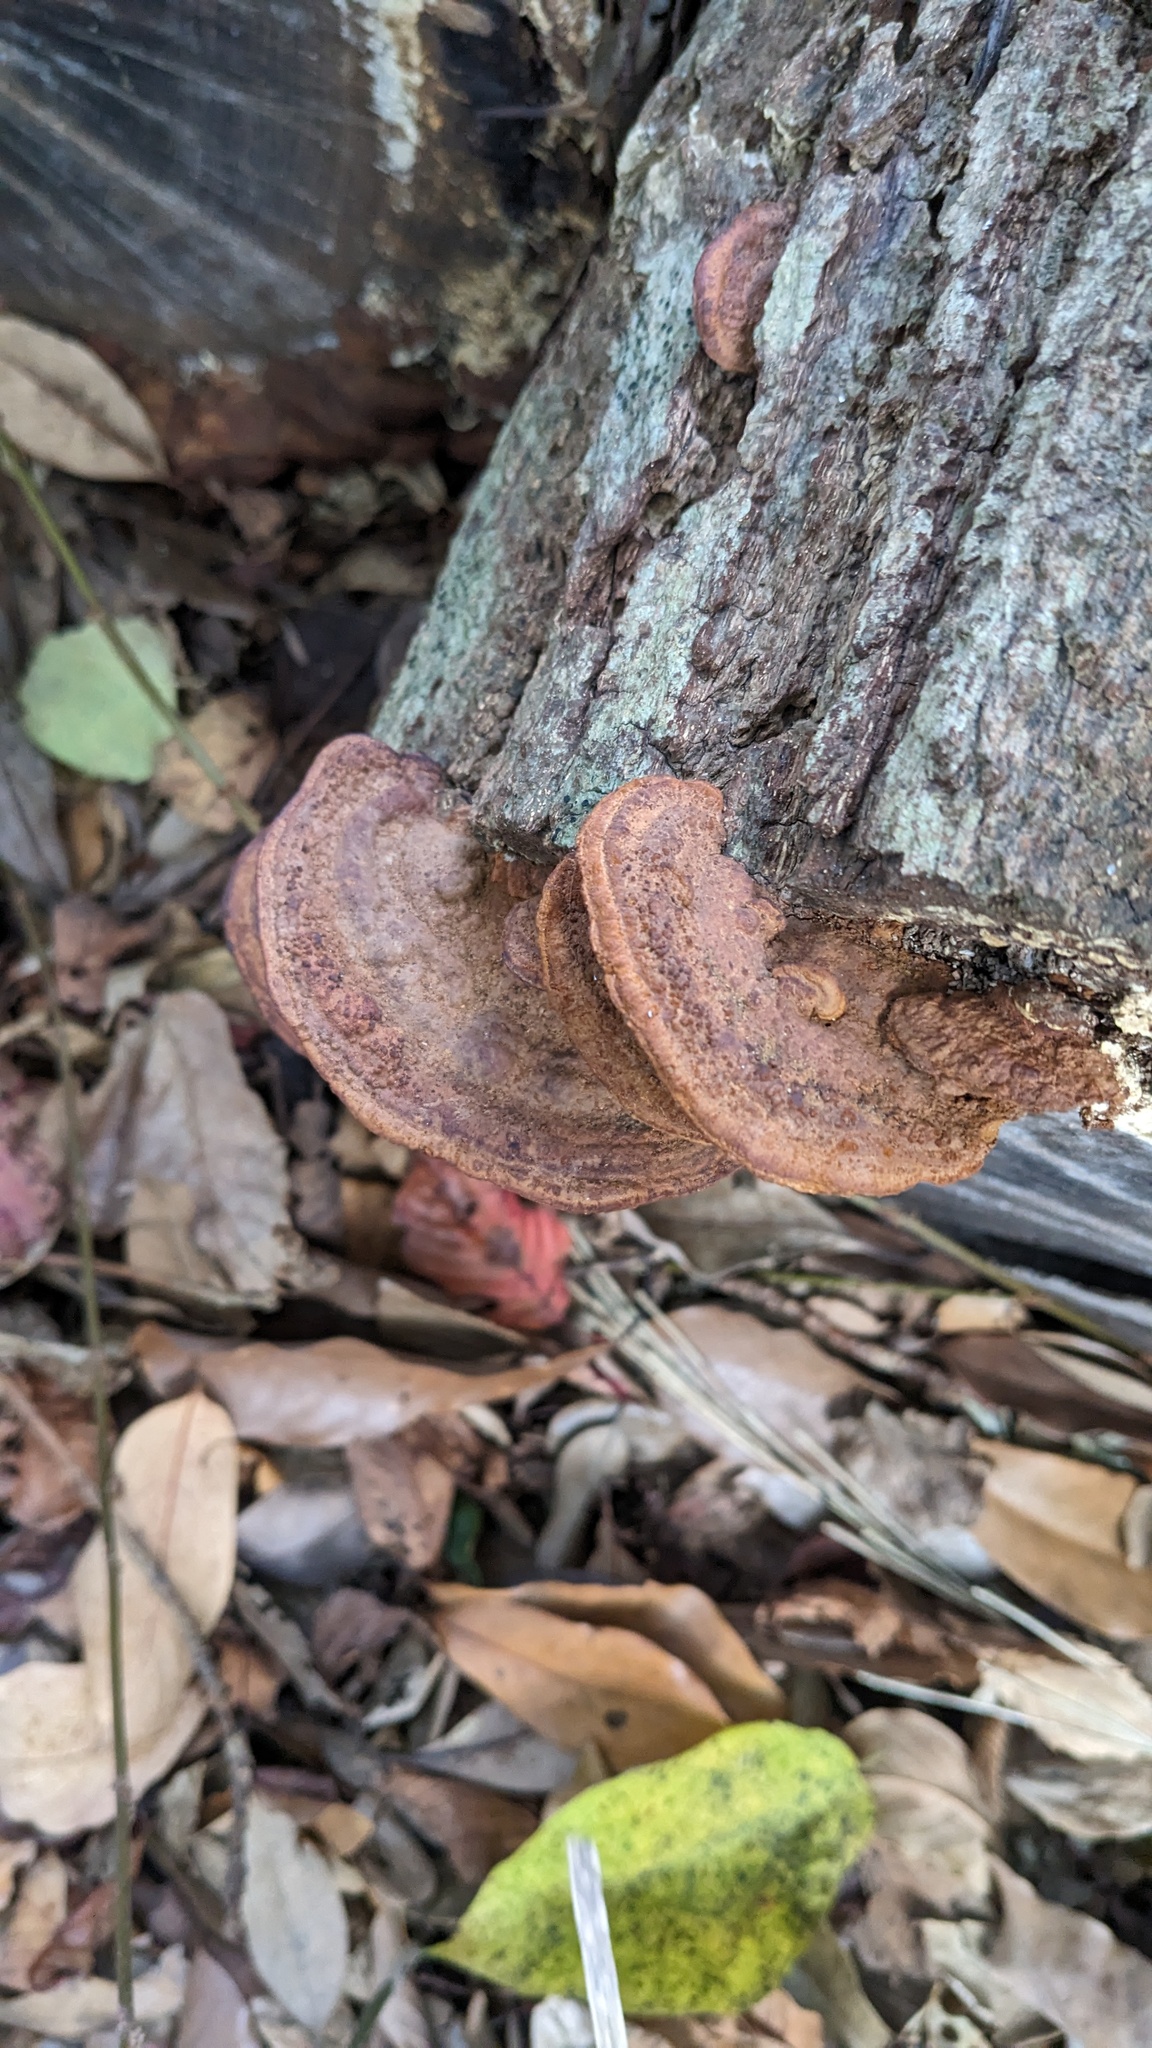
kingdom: Fungi
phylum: Basidiomycota
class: Agaricomycetes
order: Hymenochaetales
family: Hymenochaetaceae
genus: Phellinus
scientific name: Phellinus gilvus
